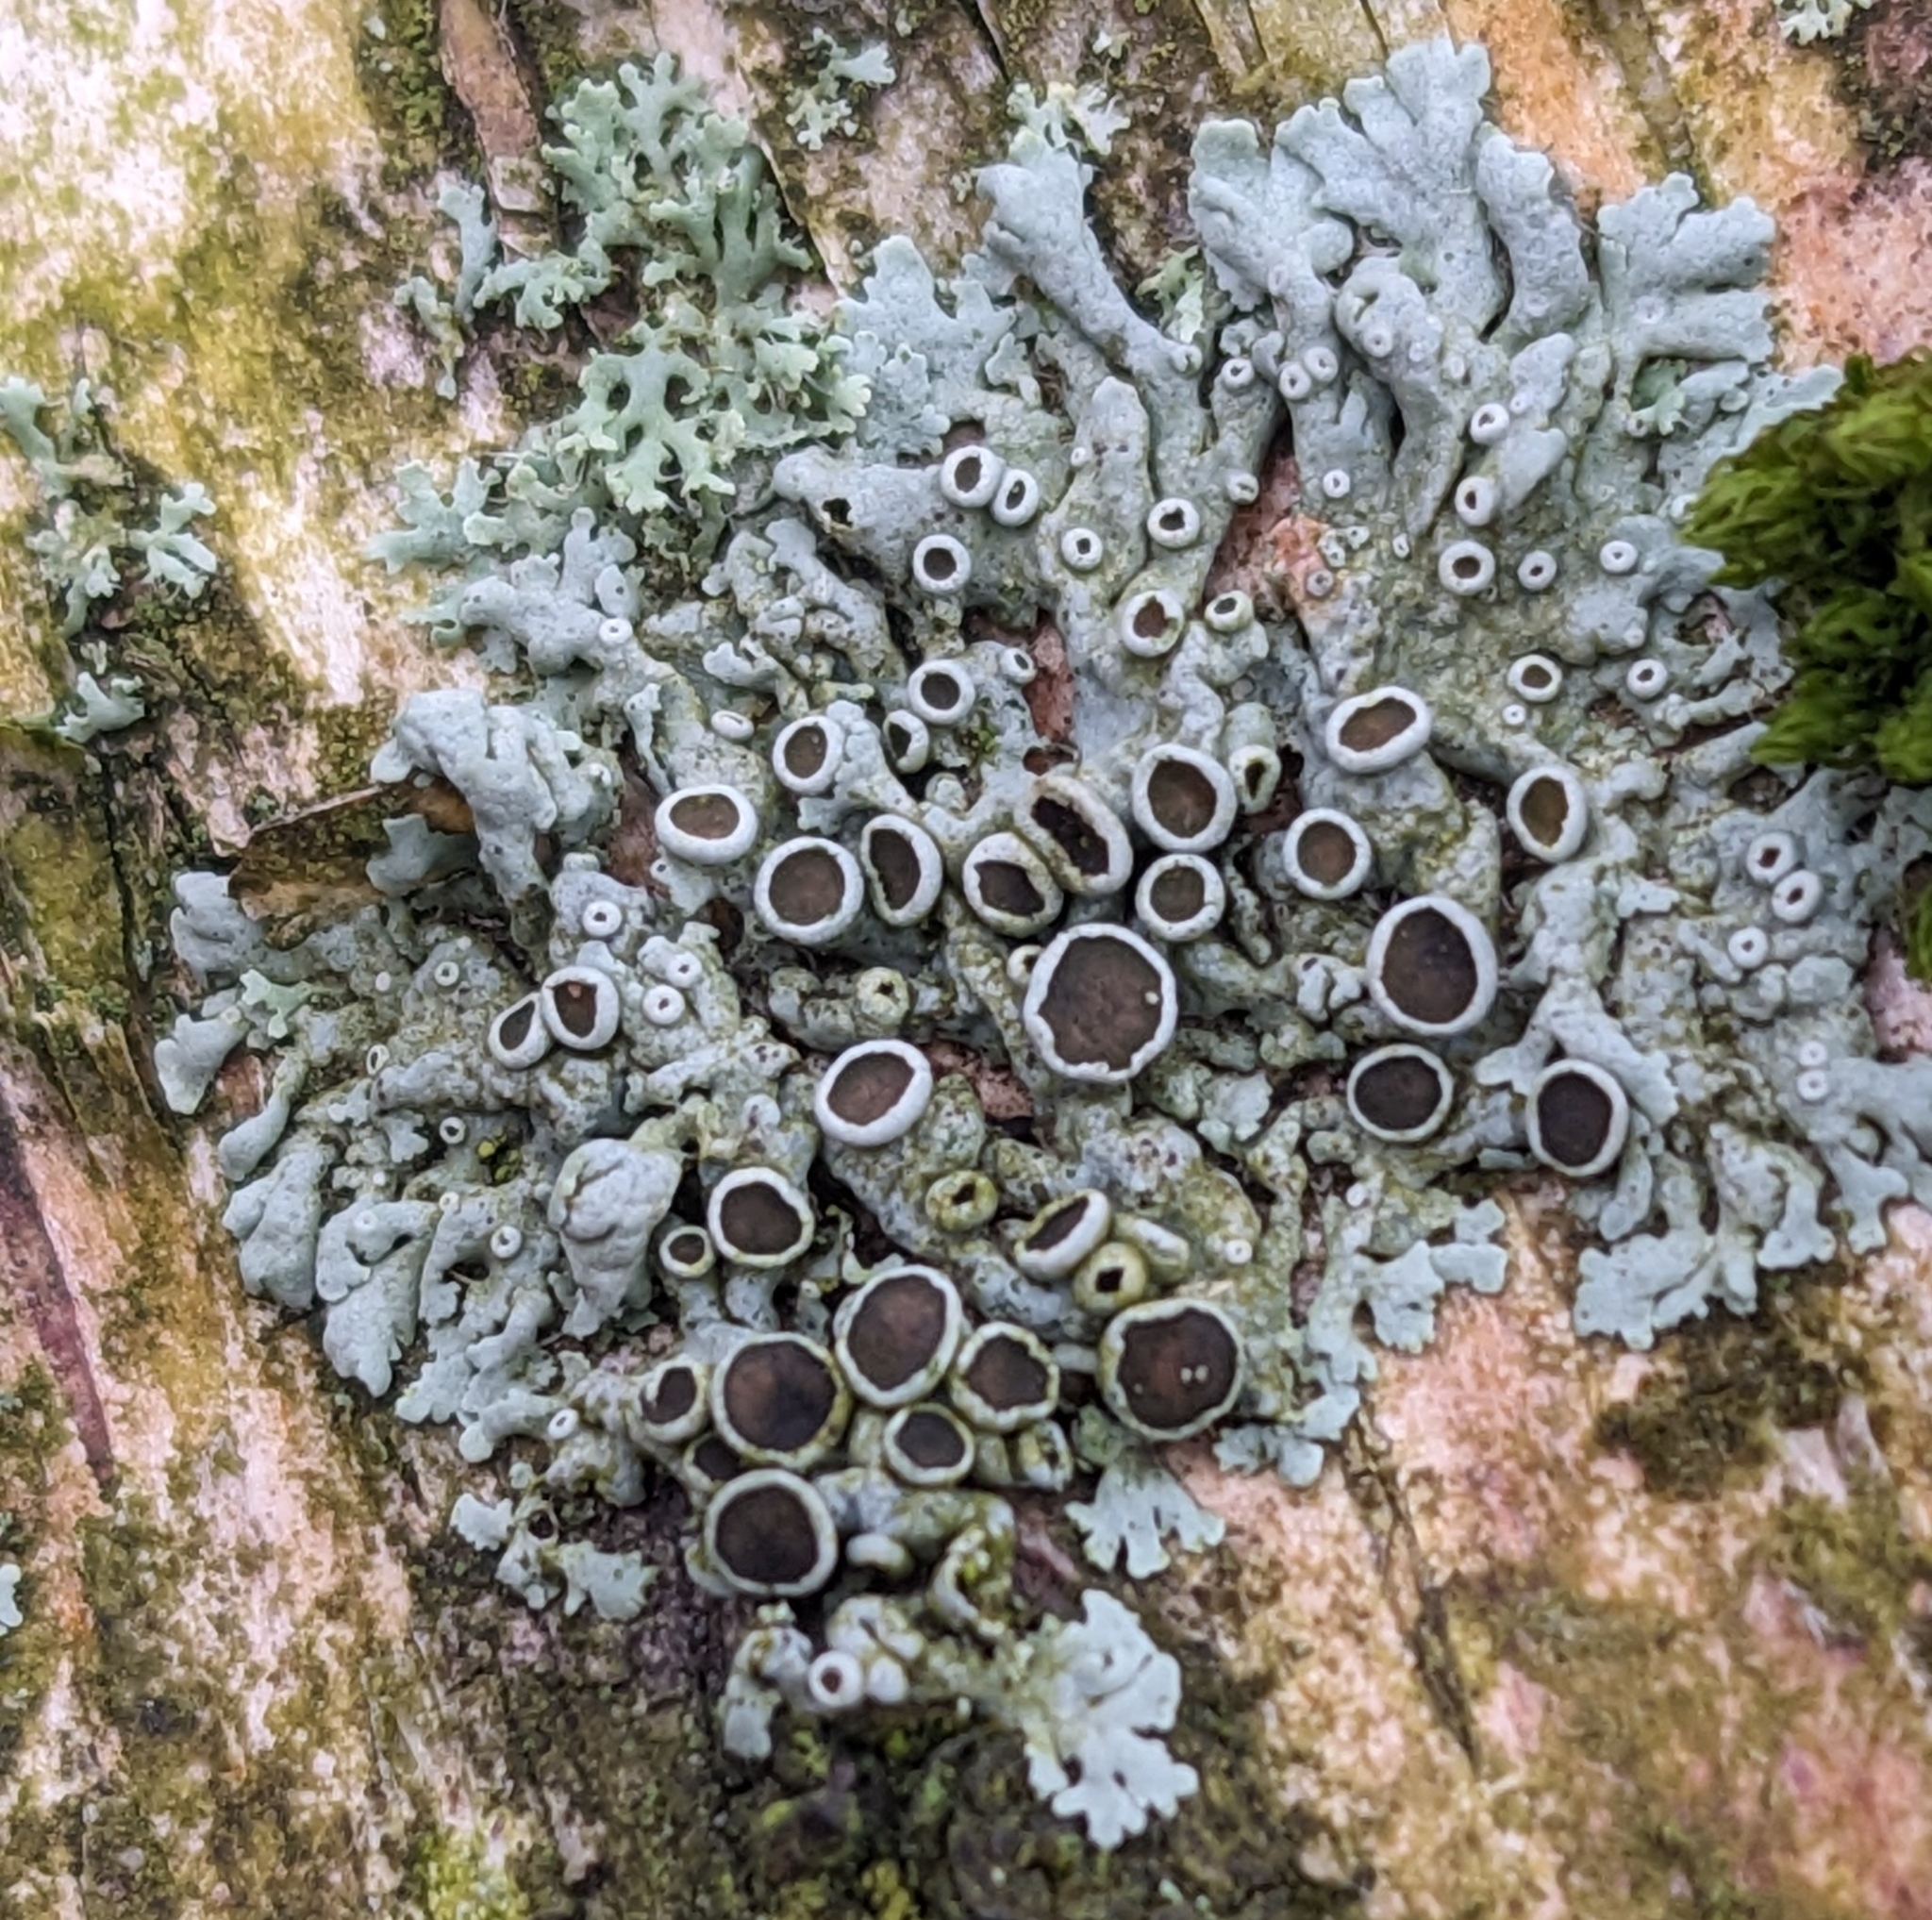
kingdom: Fungi
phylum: Ascomycota
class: Lecanoromycetes
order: Caliciales
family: Physciaceae
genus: Physcia
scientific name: Physcia aipolia
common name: Hoary rosette lichen
